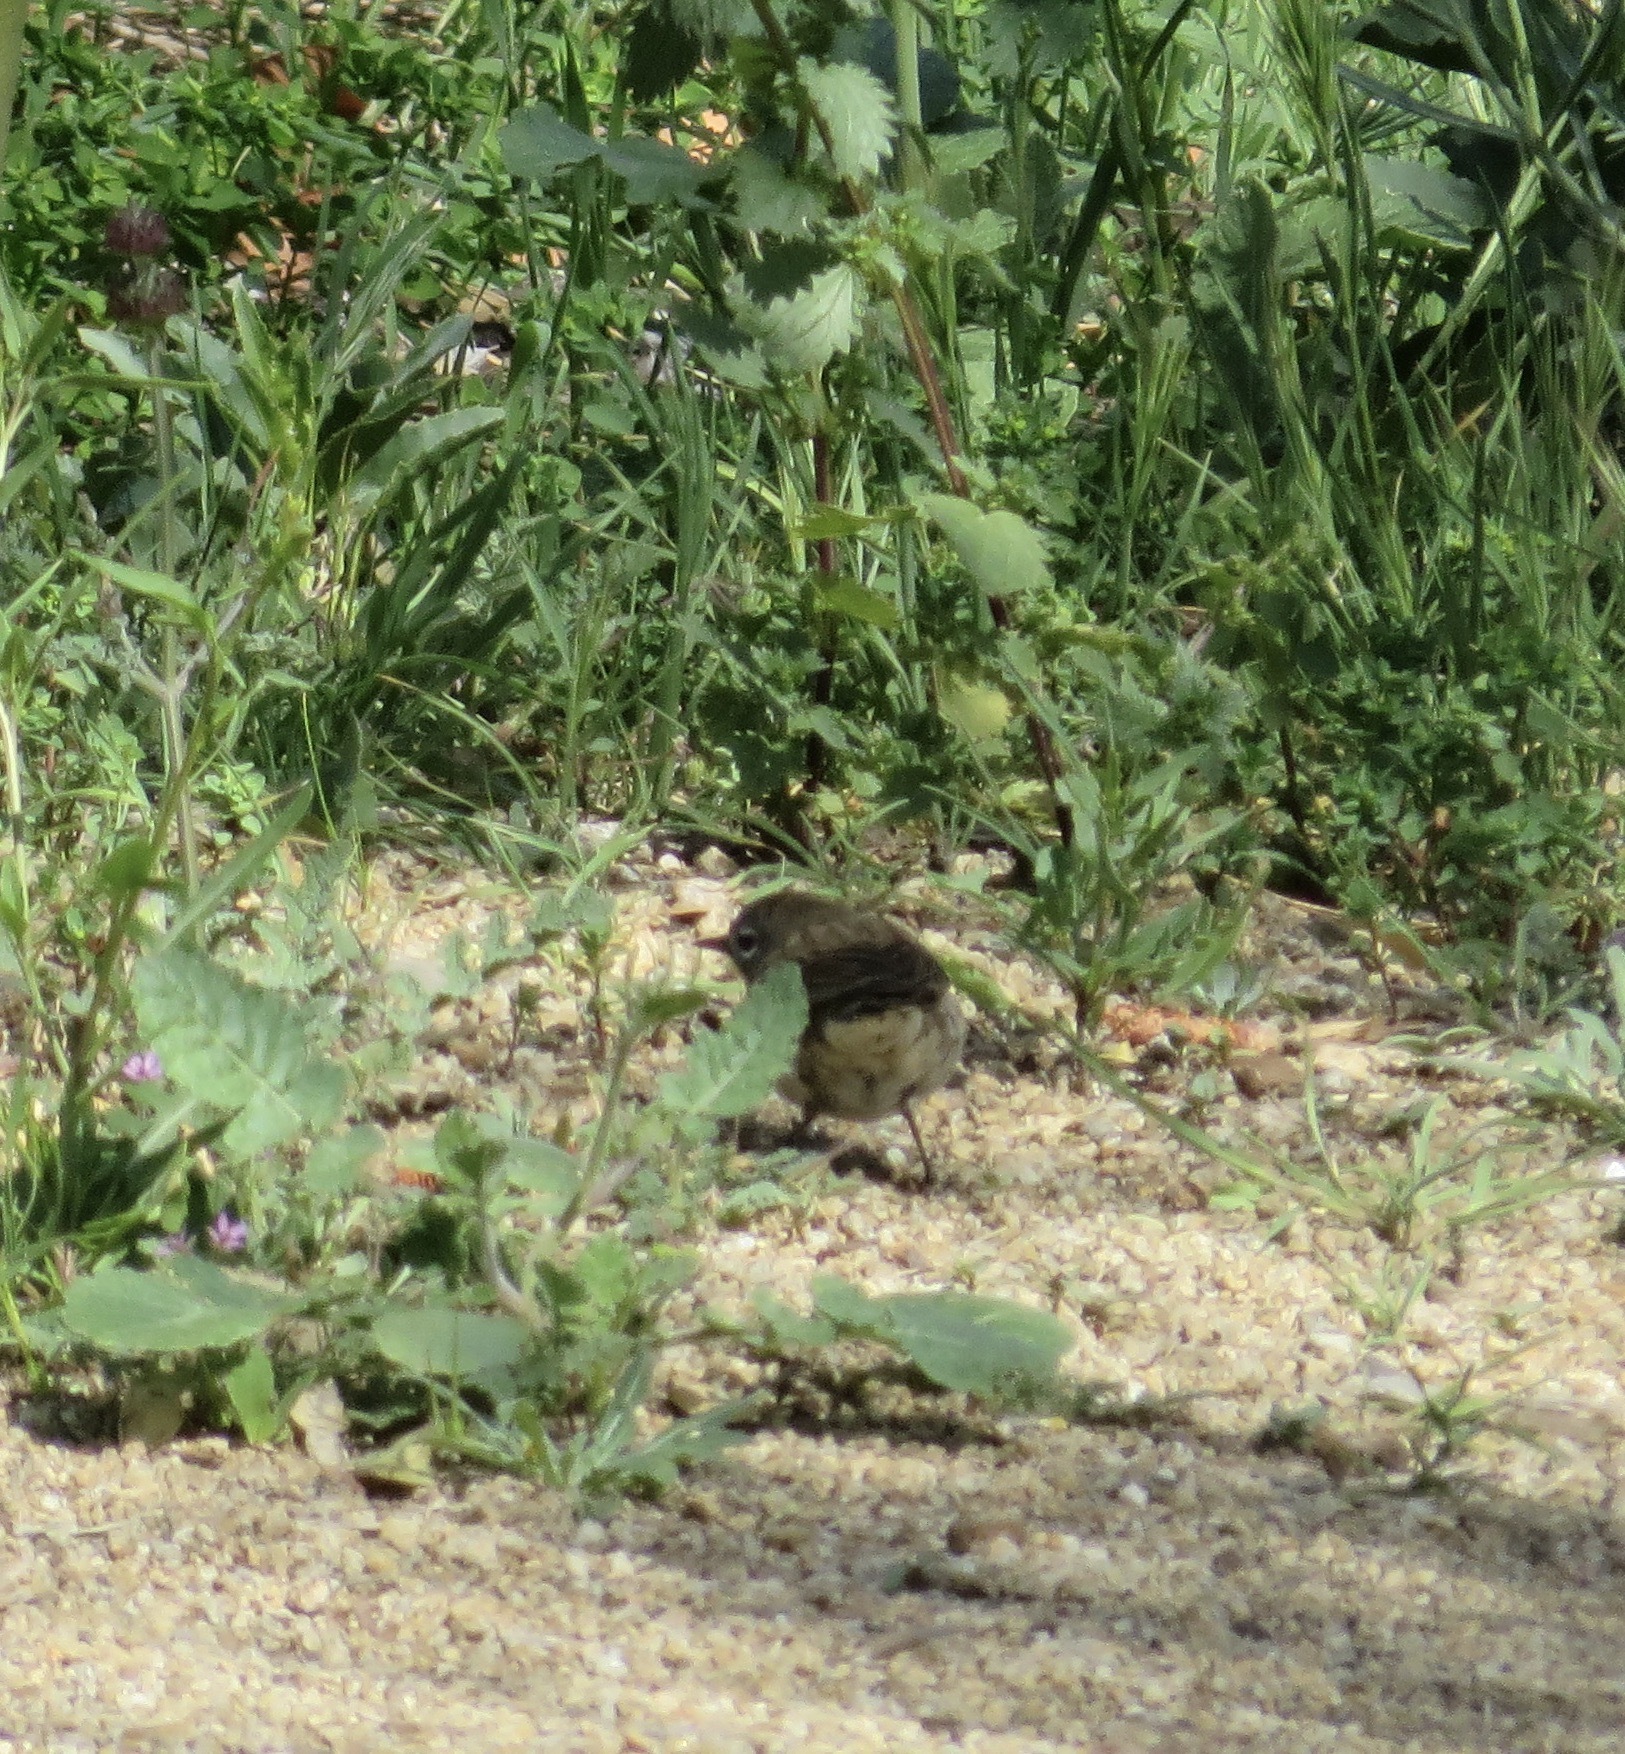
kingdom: Animalia
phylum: Chordata
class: Aves
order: Passeriformes
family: Parulidae
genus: Setophaga
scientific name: Setophaga coronata
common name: Myrtle warbler
